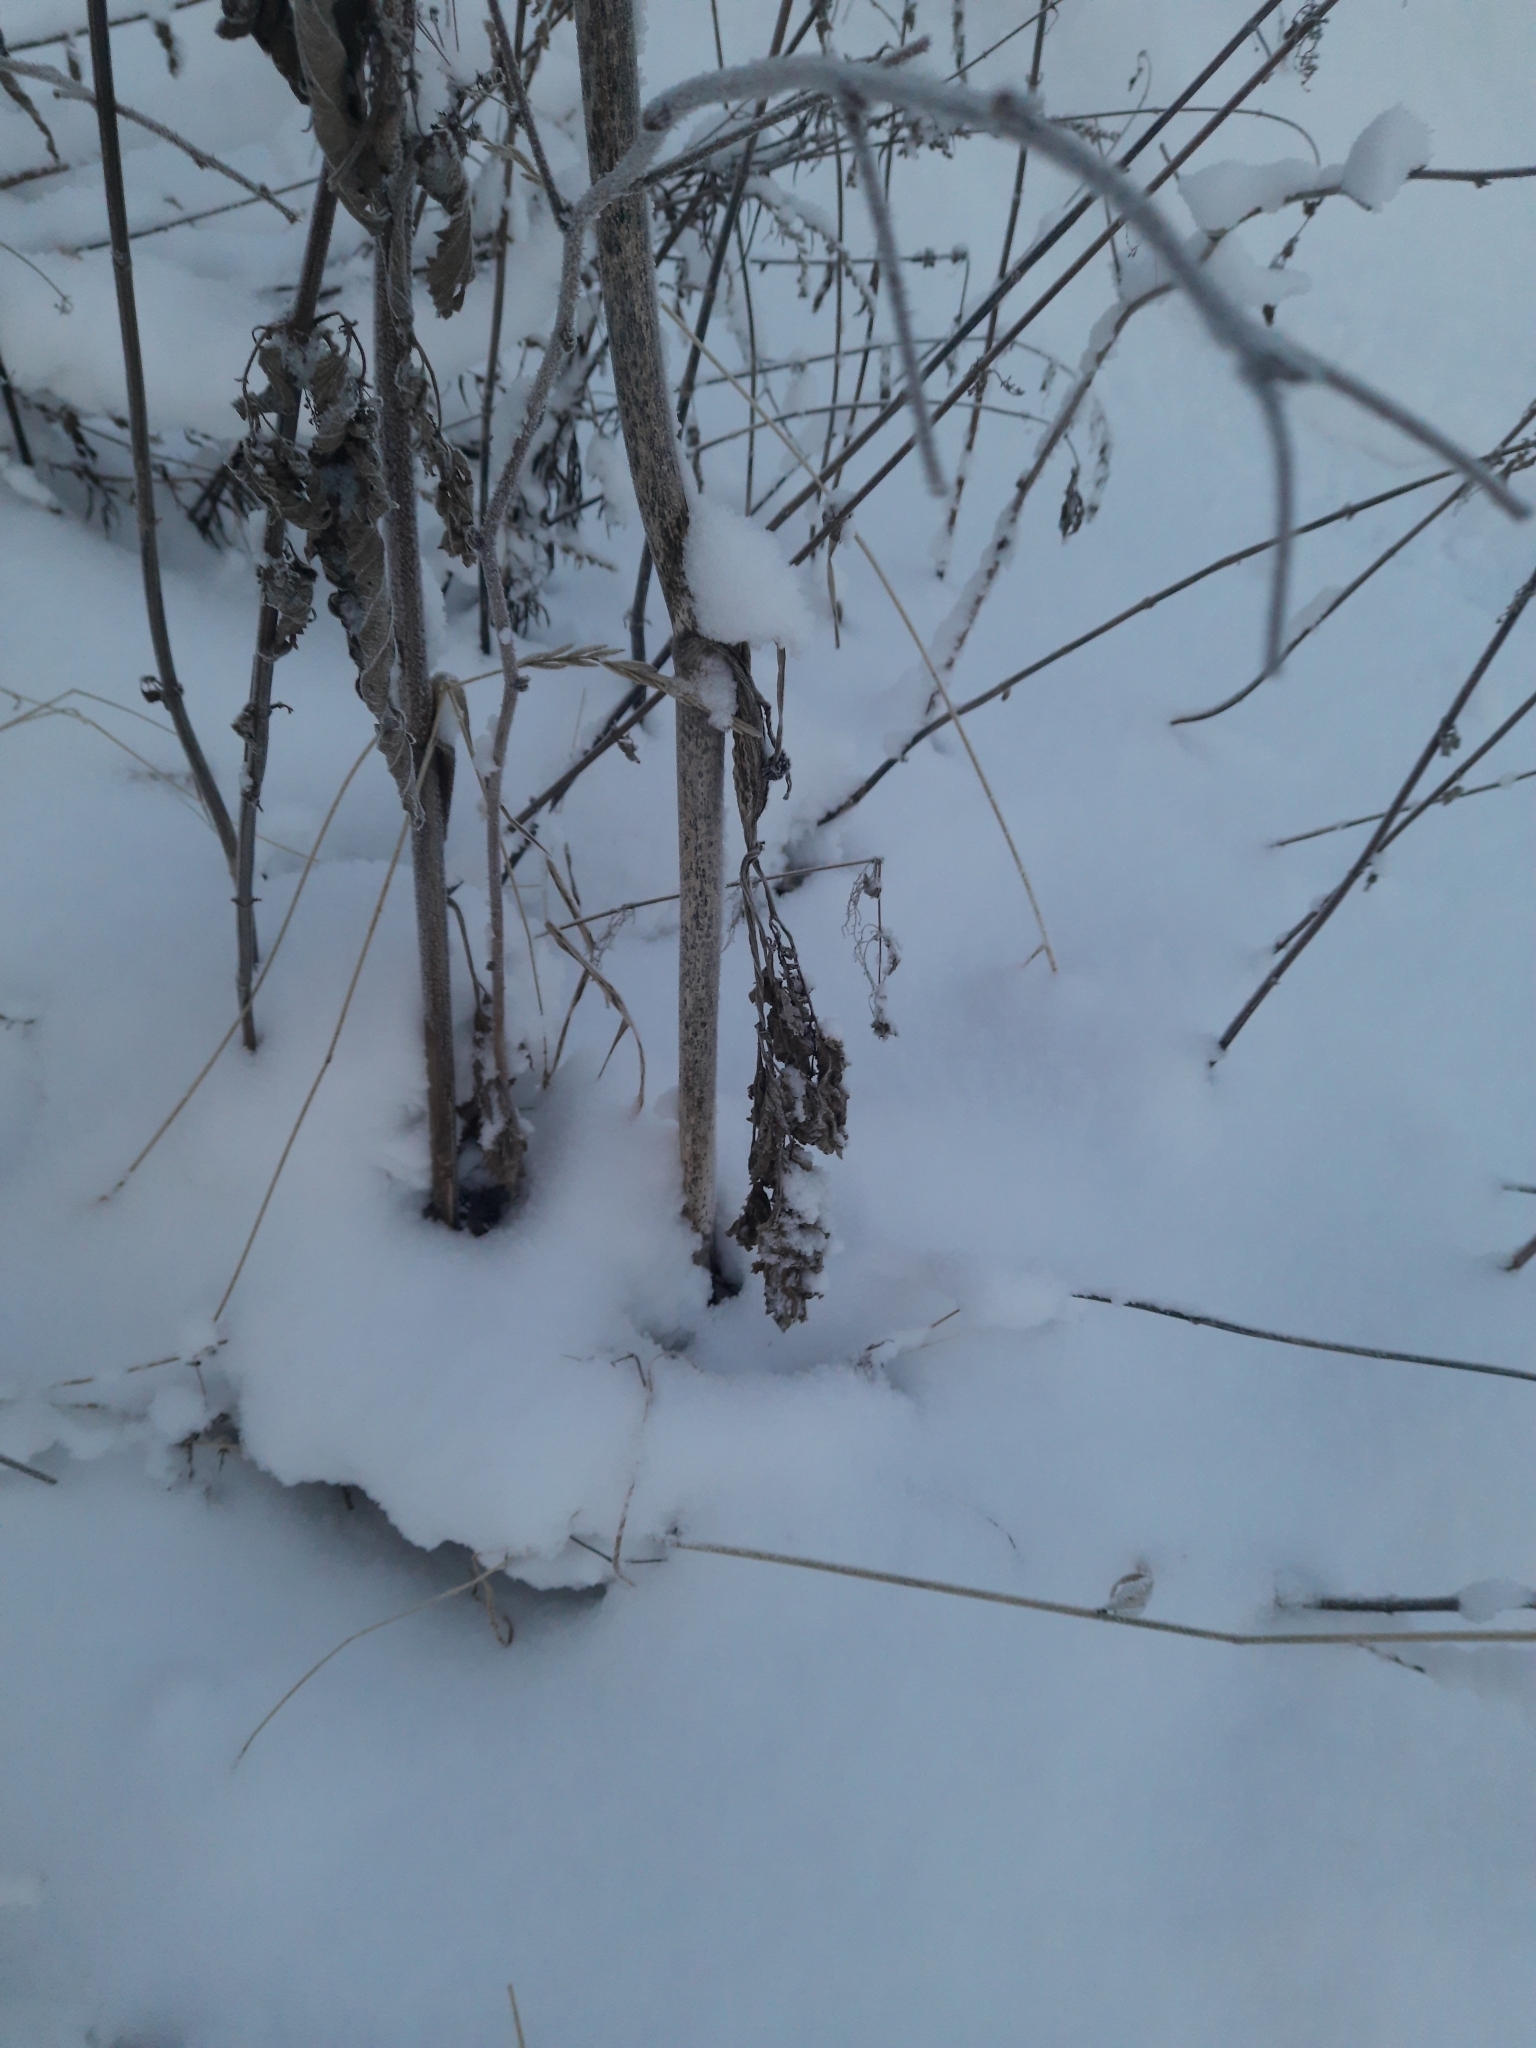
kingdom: Plantae
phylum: Tracheophyta
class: Magnoliopsida
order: Apiales
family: Apiaceae
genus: Angelica
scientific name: Angelica sylvestris
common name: Wild angelica
